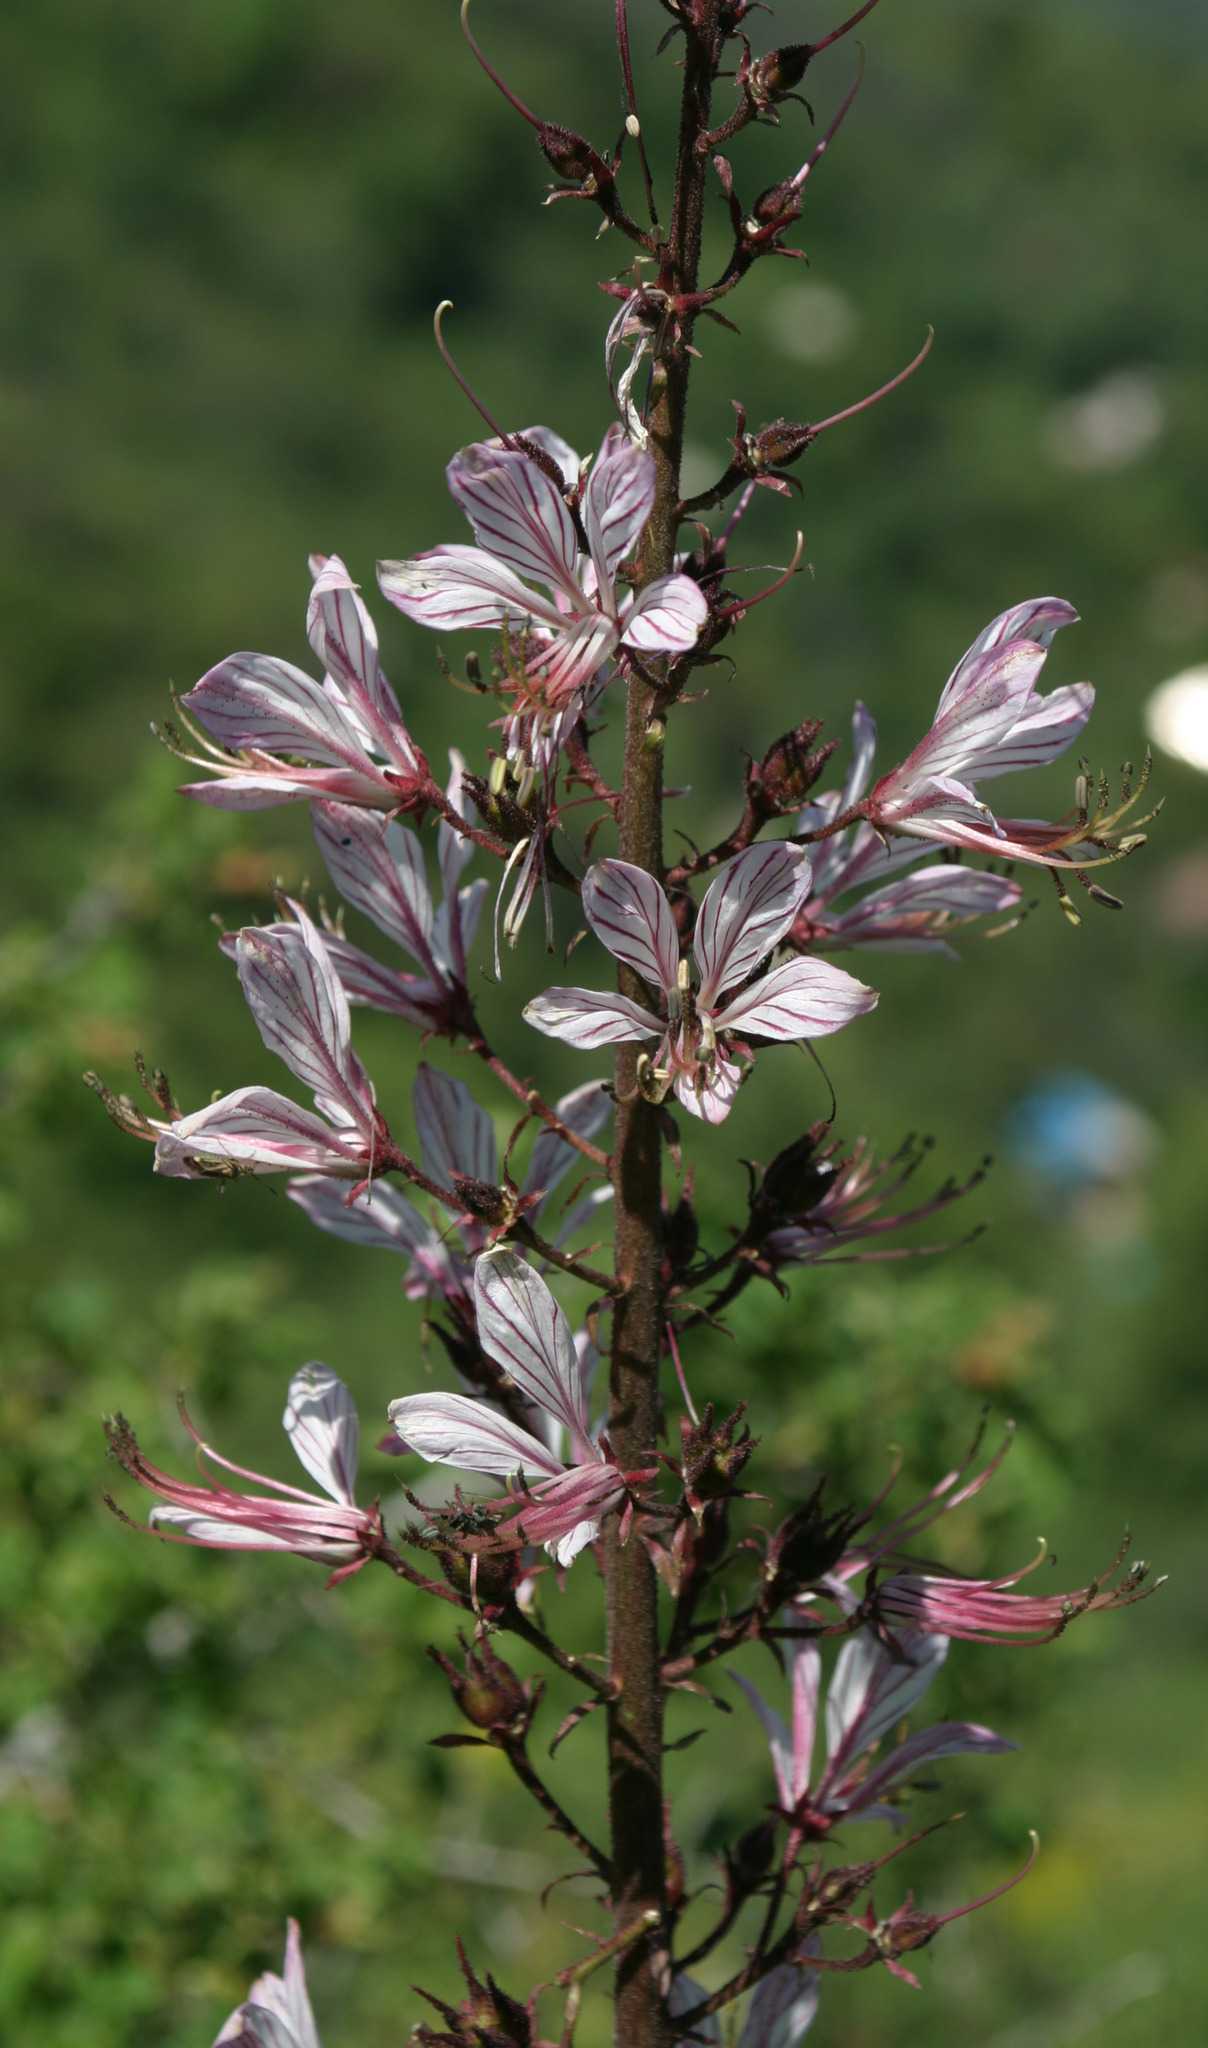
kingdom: Plantae
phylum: Tracheophyta
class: Magnoliopsida
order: Sapindales
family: Rutaceae
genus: Dictamnus
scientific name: Dictamnus albus
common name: Gasplant
